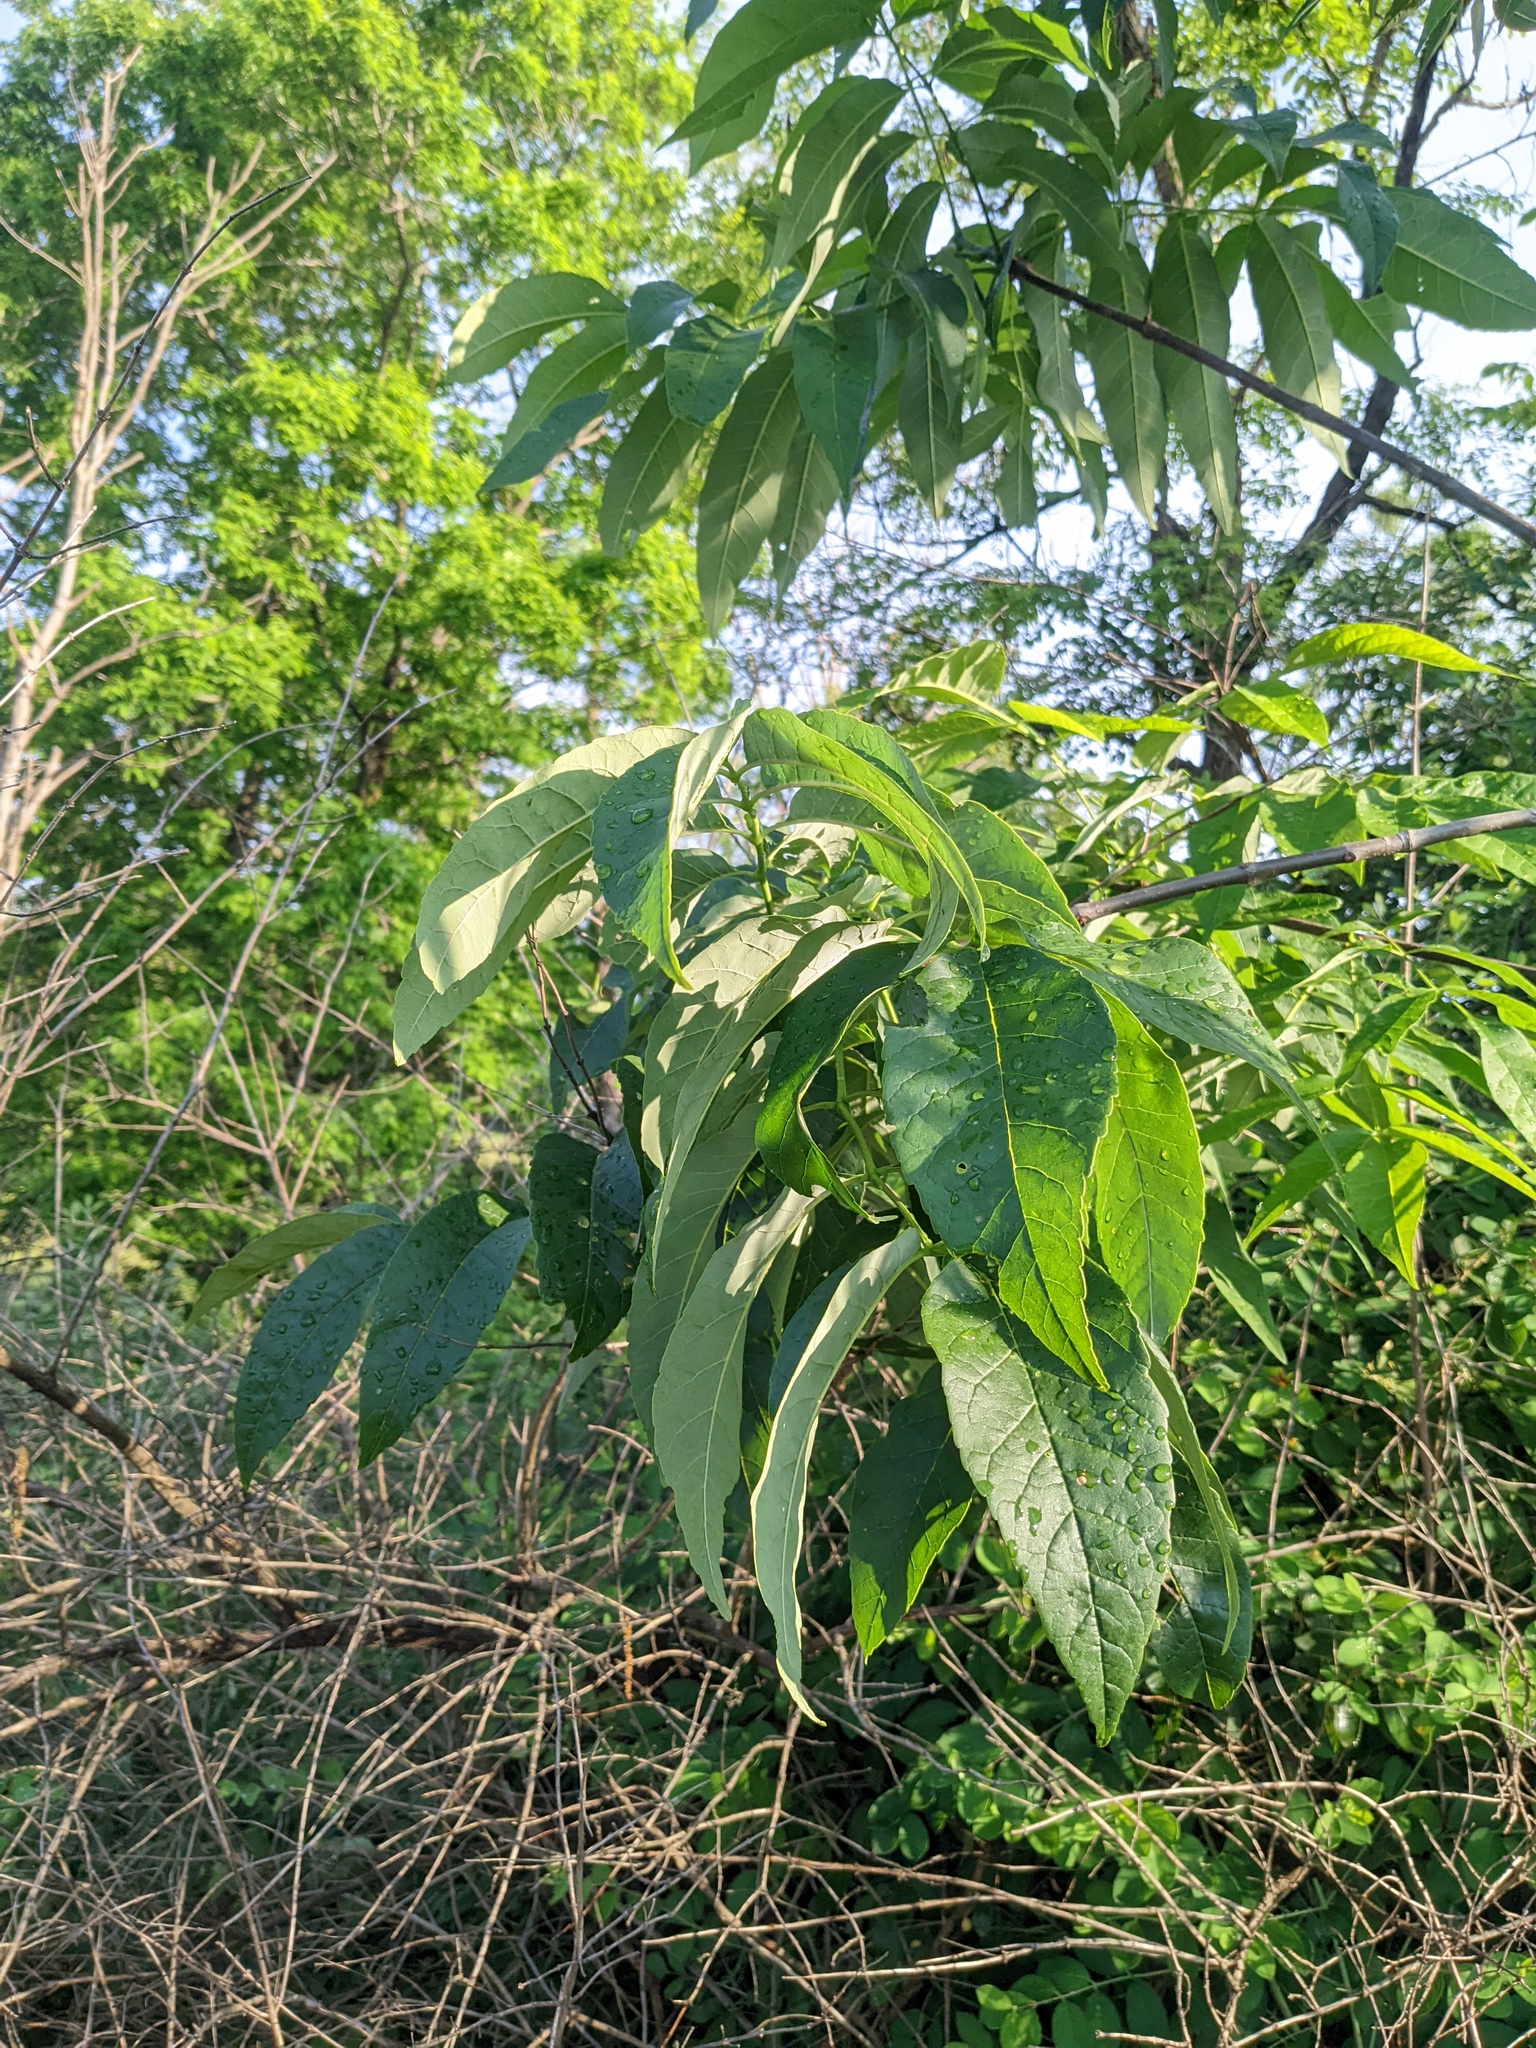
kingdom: Plantae
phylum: Tracheophyta
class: Magnoliopsida
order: Lamiales
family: Oleaceae
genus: Fraxinus
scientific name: Fraxinus americana
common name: White ash
